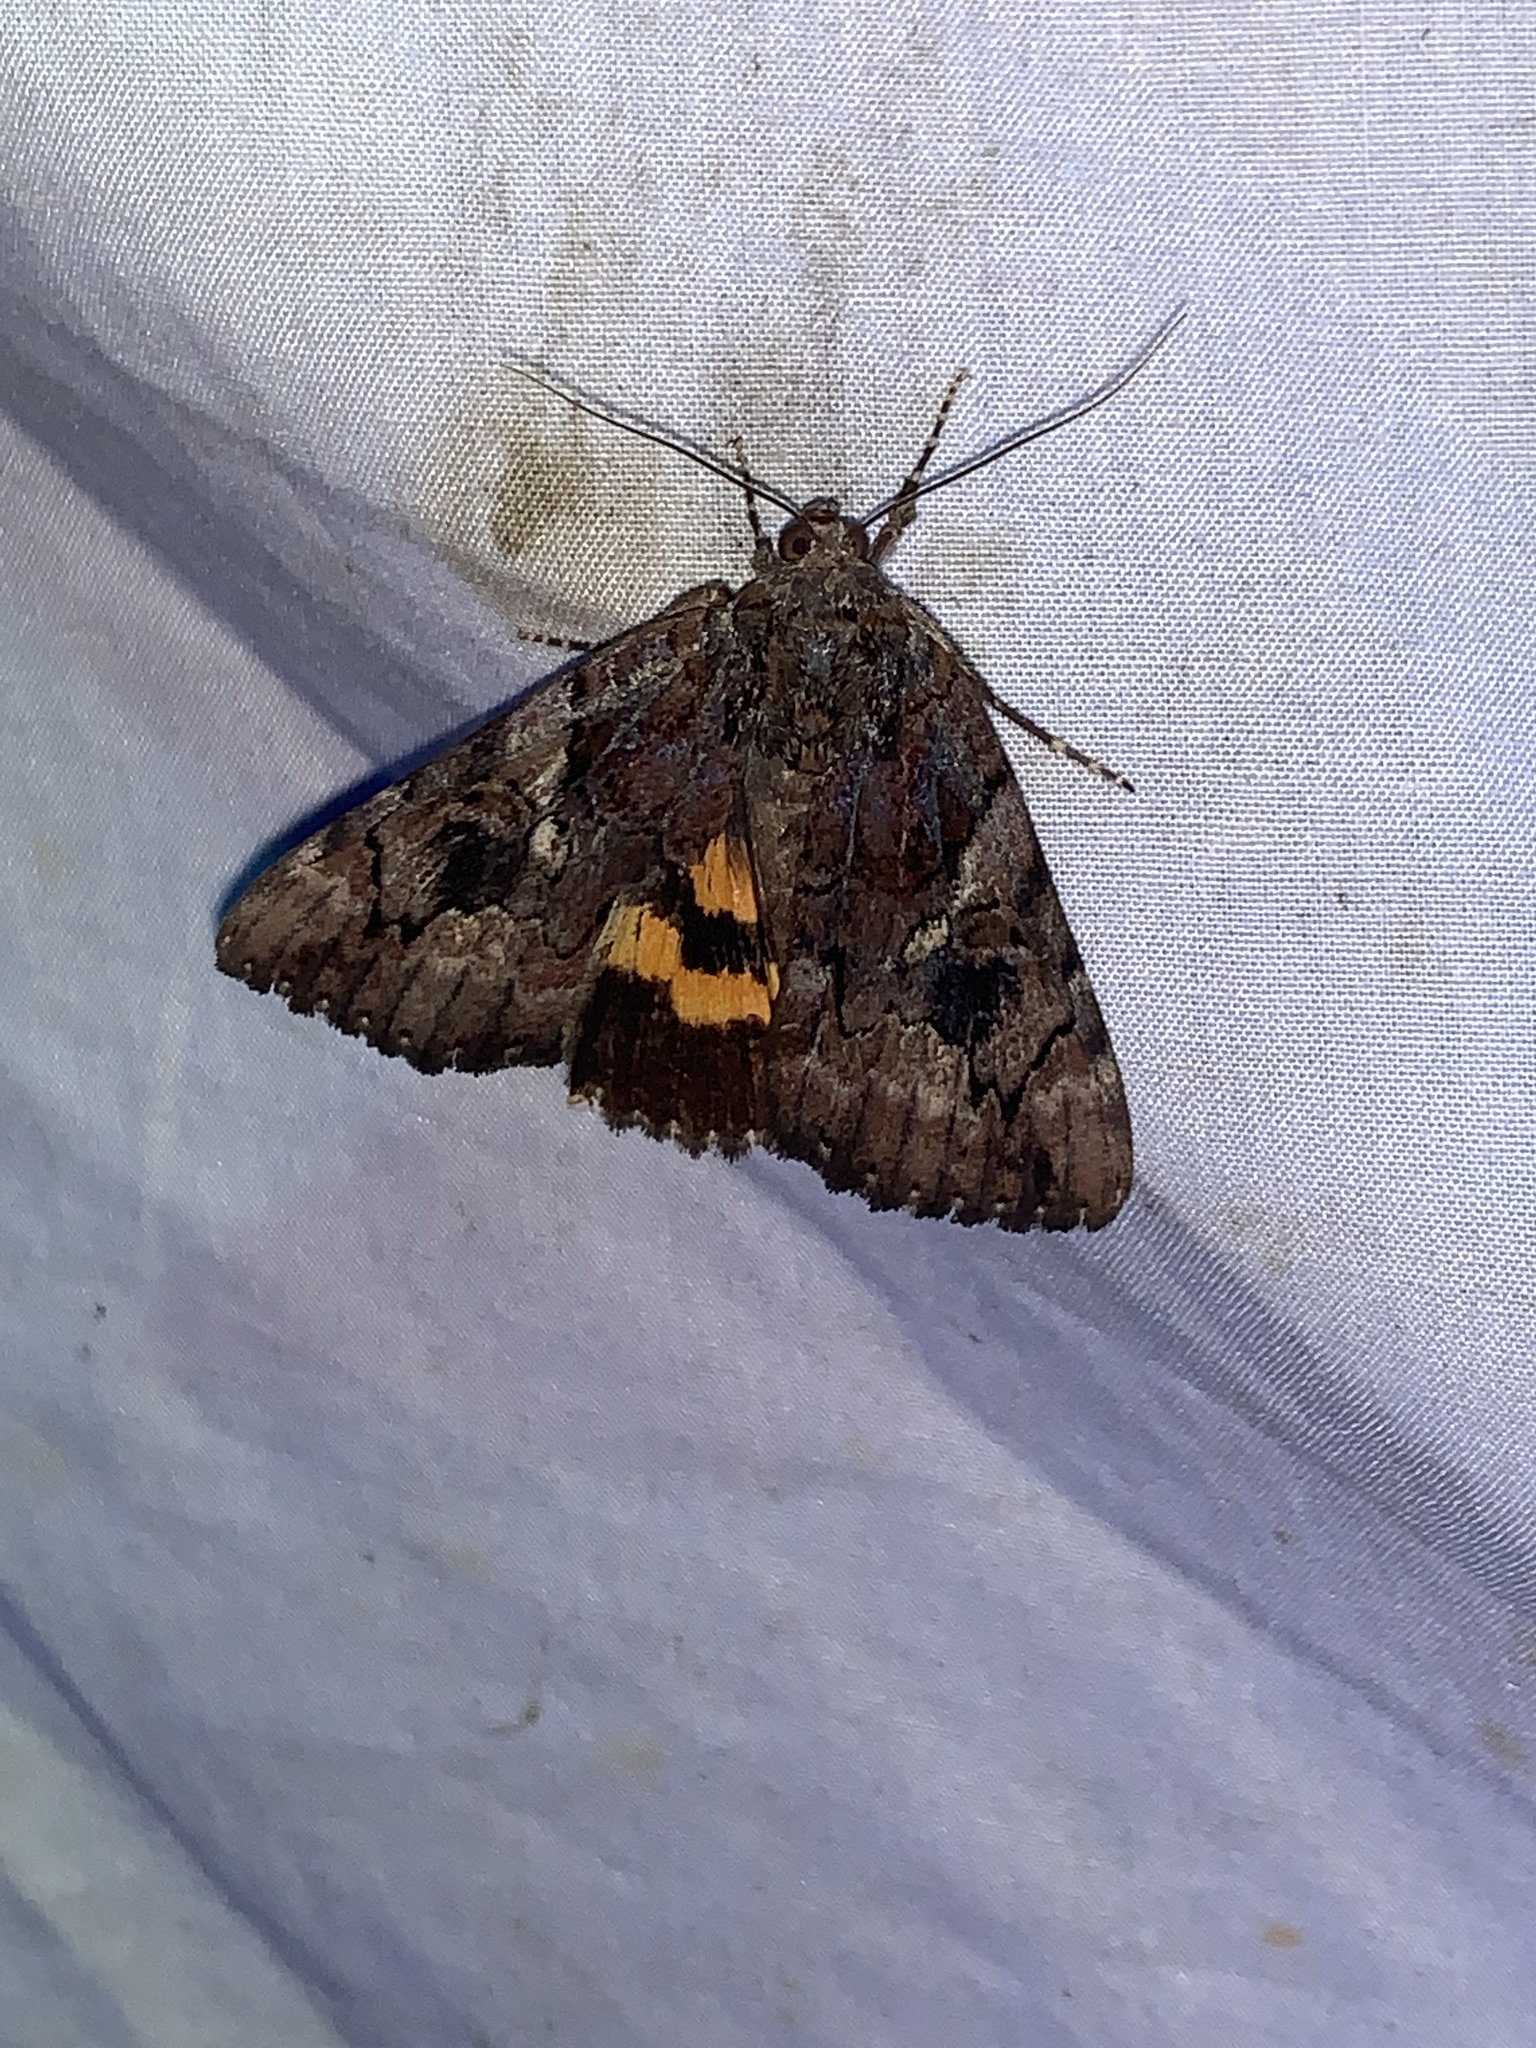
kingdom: Animalia
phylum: Arthropoda
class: Insecta
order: Lepidoptera
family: Erebidae
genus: Catocala
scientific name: Catocala muliercula
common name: The little wife underwing
